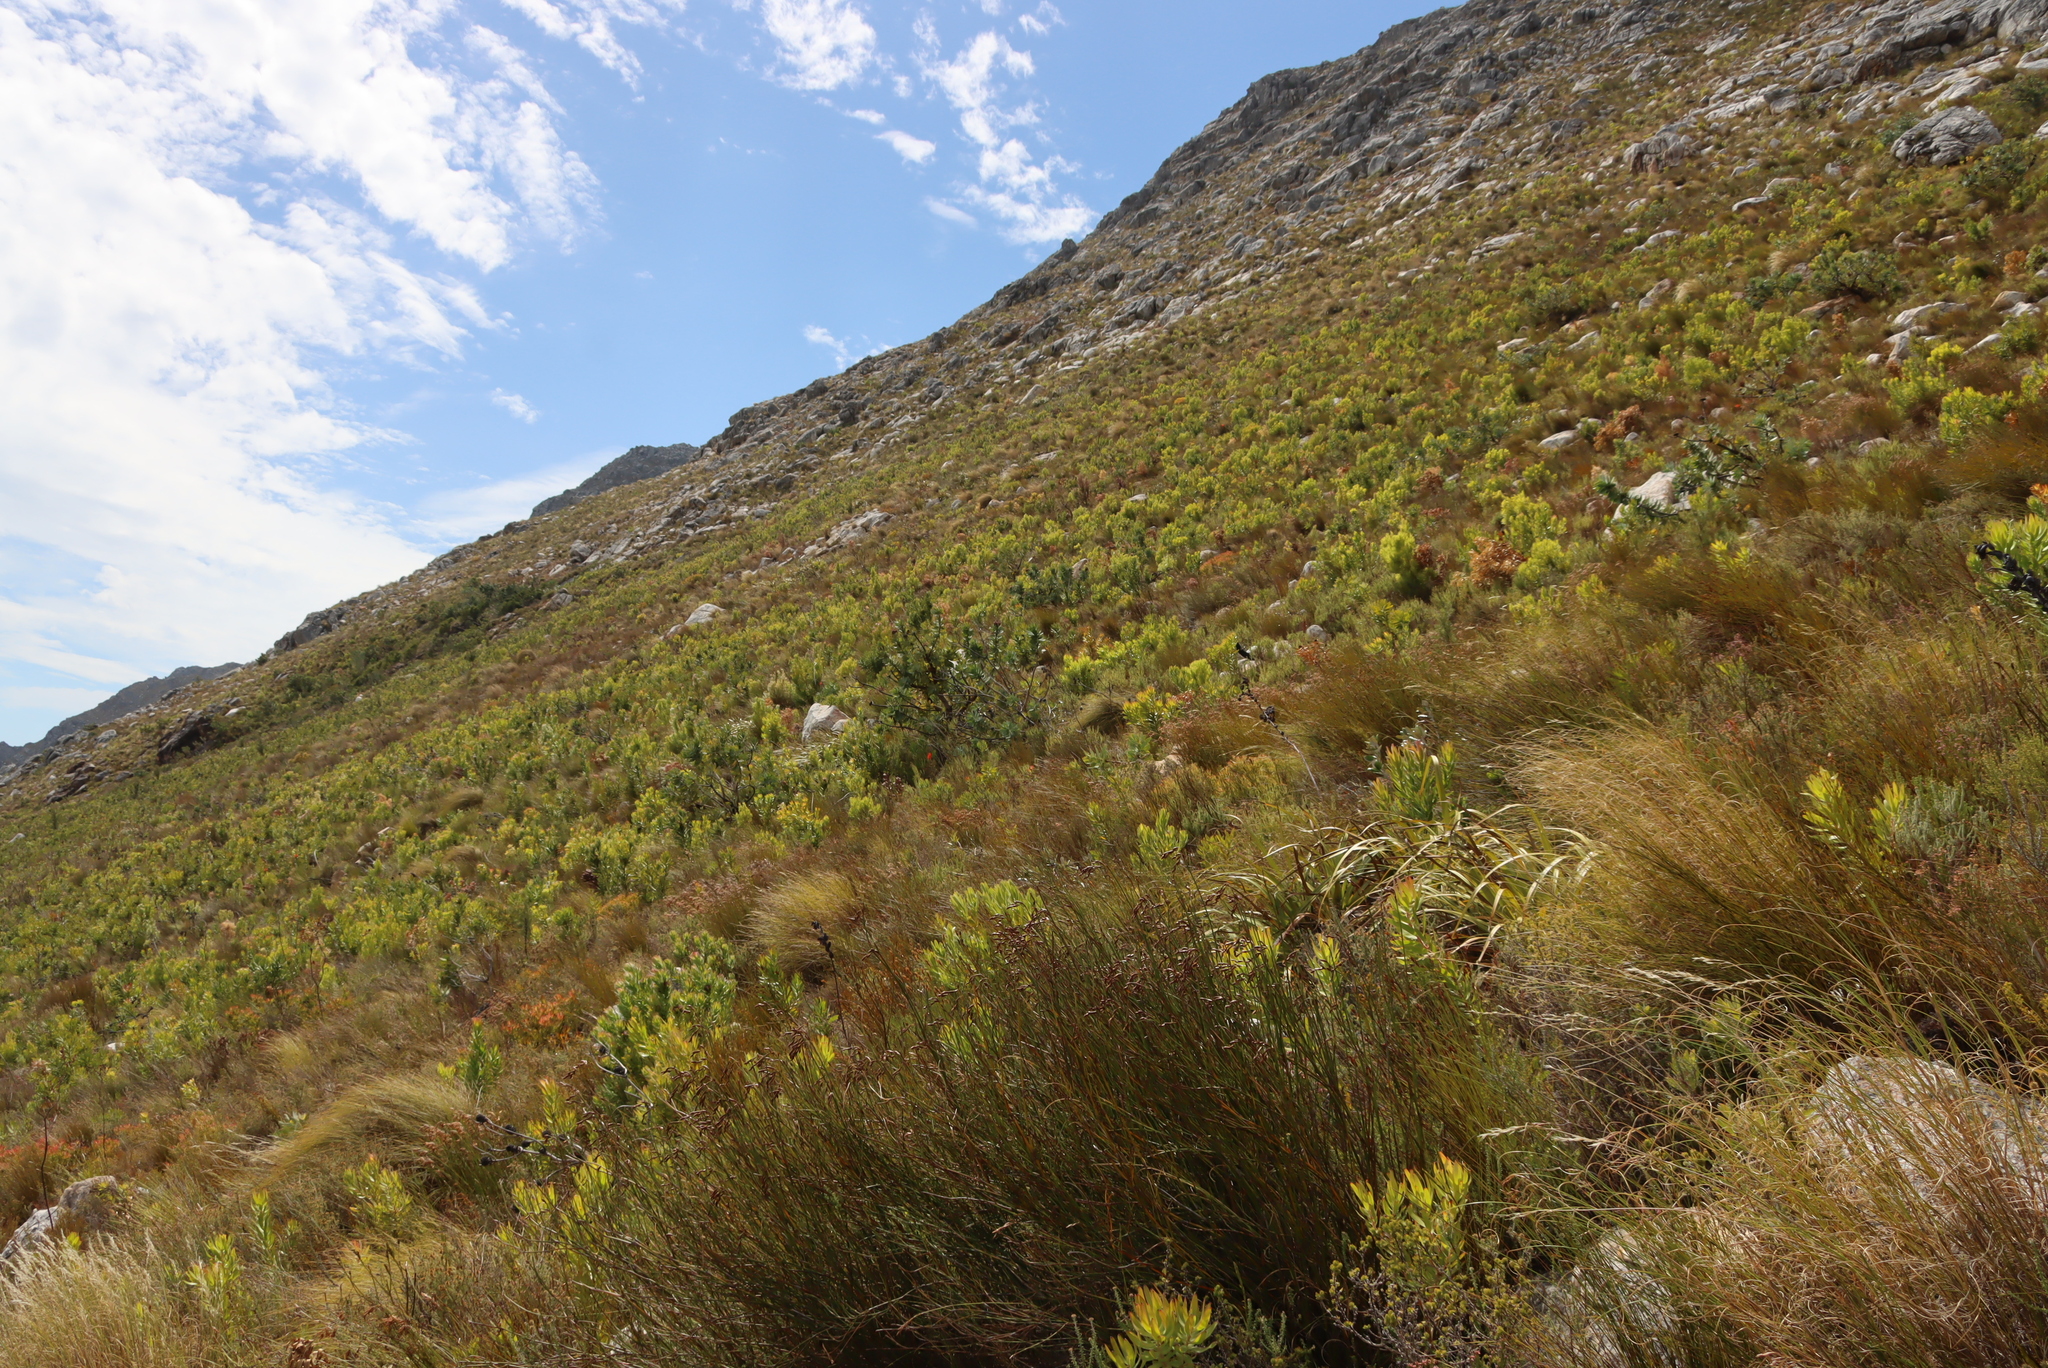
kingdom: Plantae
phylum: Tracheophyta
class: Magnoliopsida
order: Proteales
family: Proteaceae
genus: Protea
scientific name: Protea nitida
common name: Tree protea
